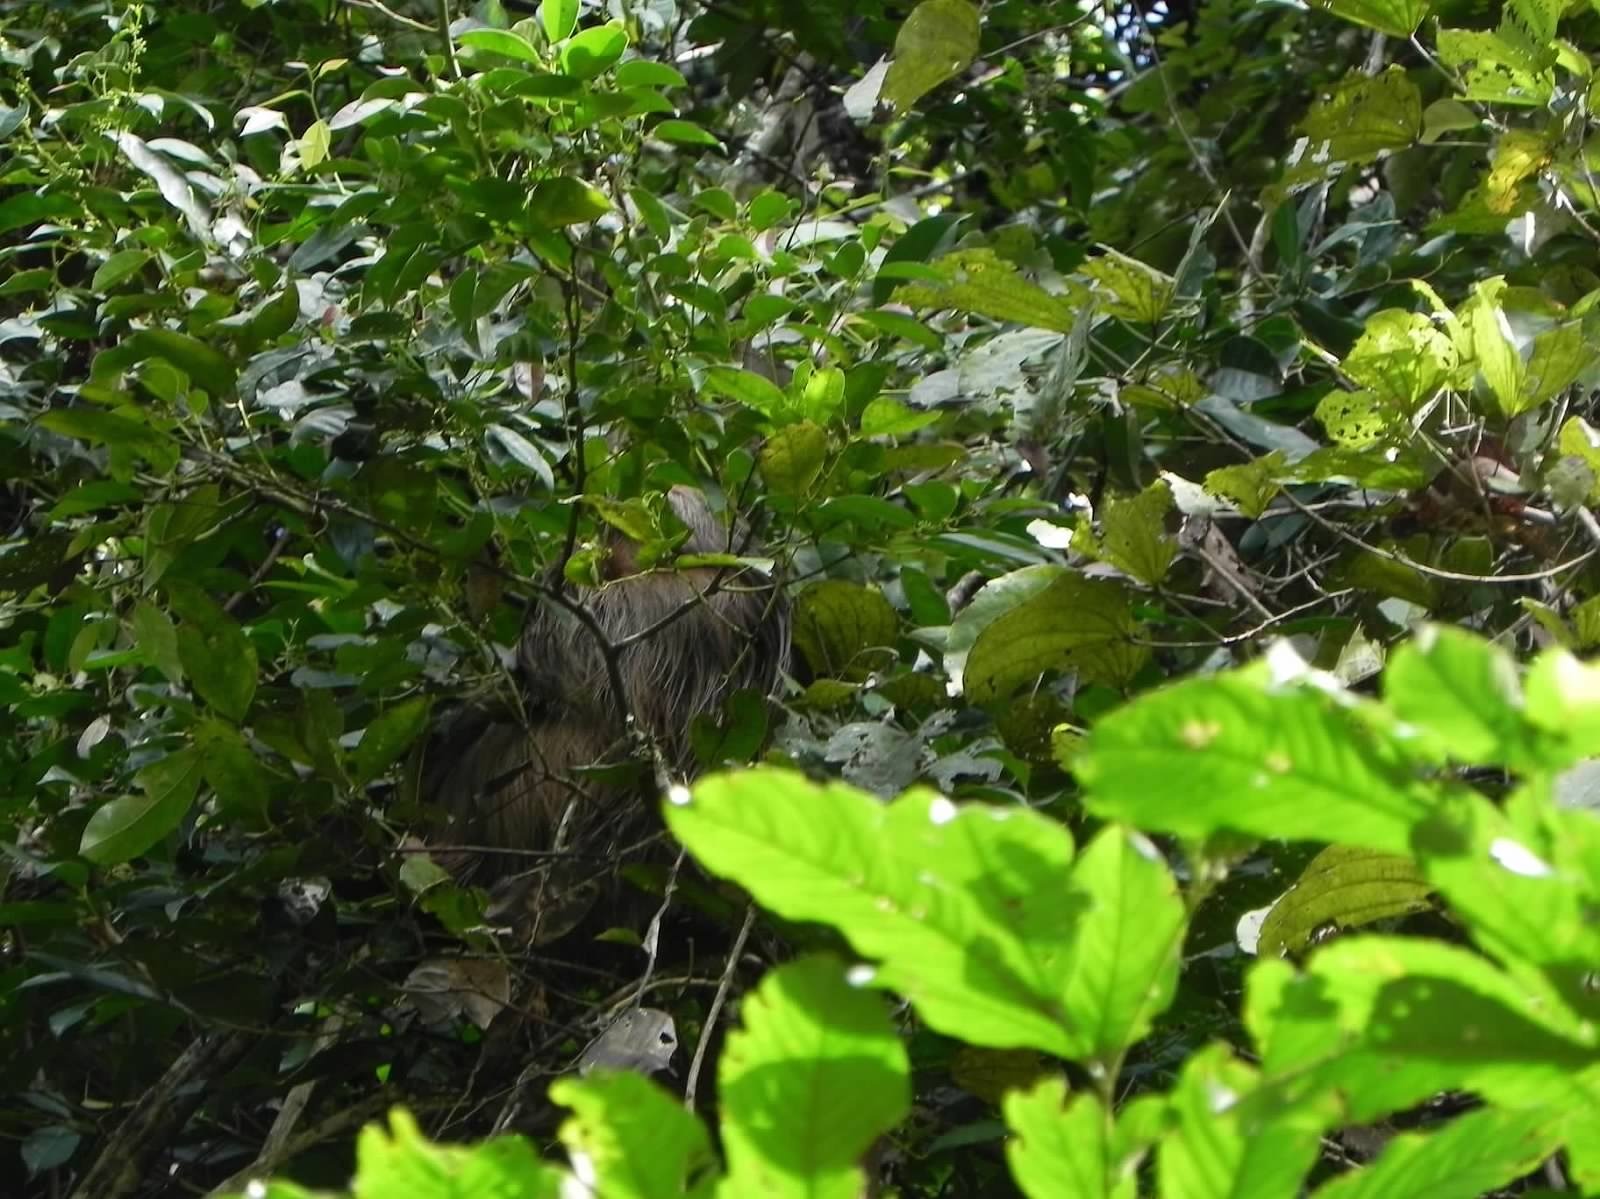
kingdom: Animalia
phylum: Chordata
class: Mammalia
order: Pilosa
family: Megalonychidae
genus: Choloepus
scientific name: Choloepus didactylus
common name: Southern two-toed sloth
